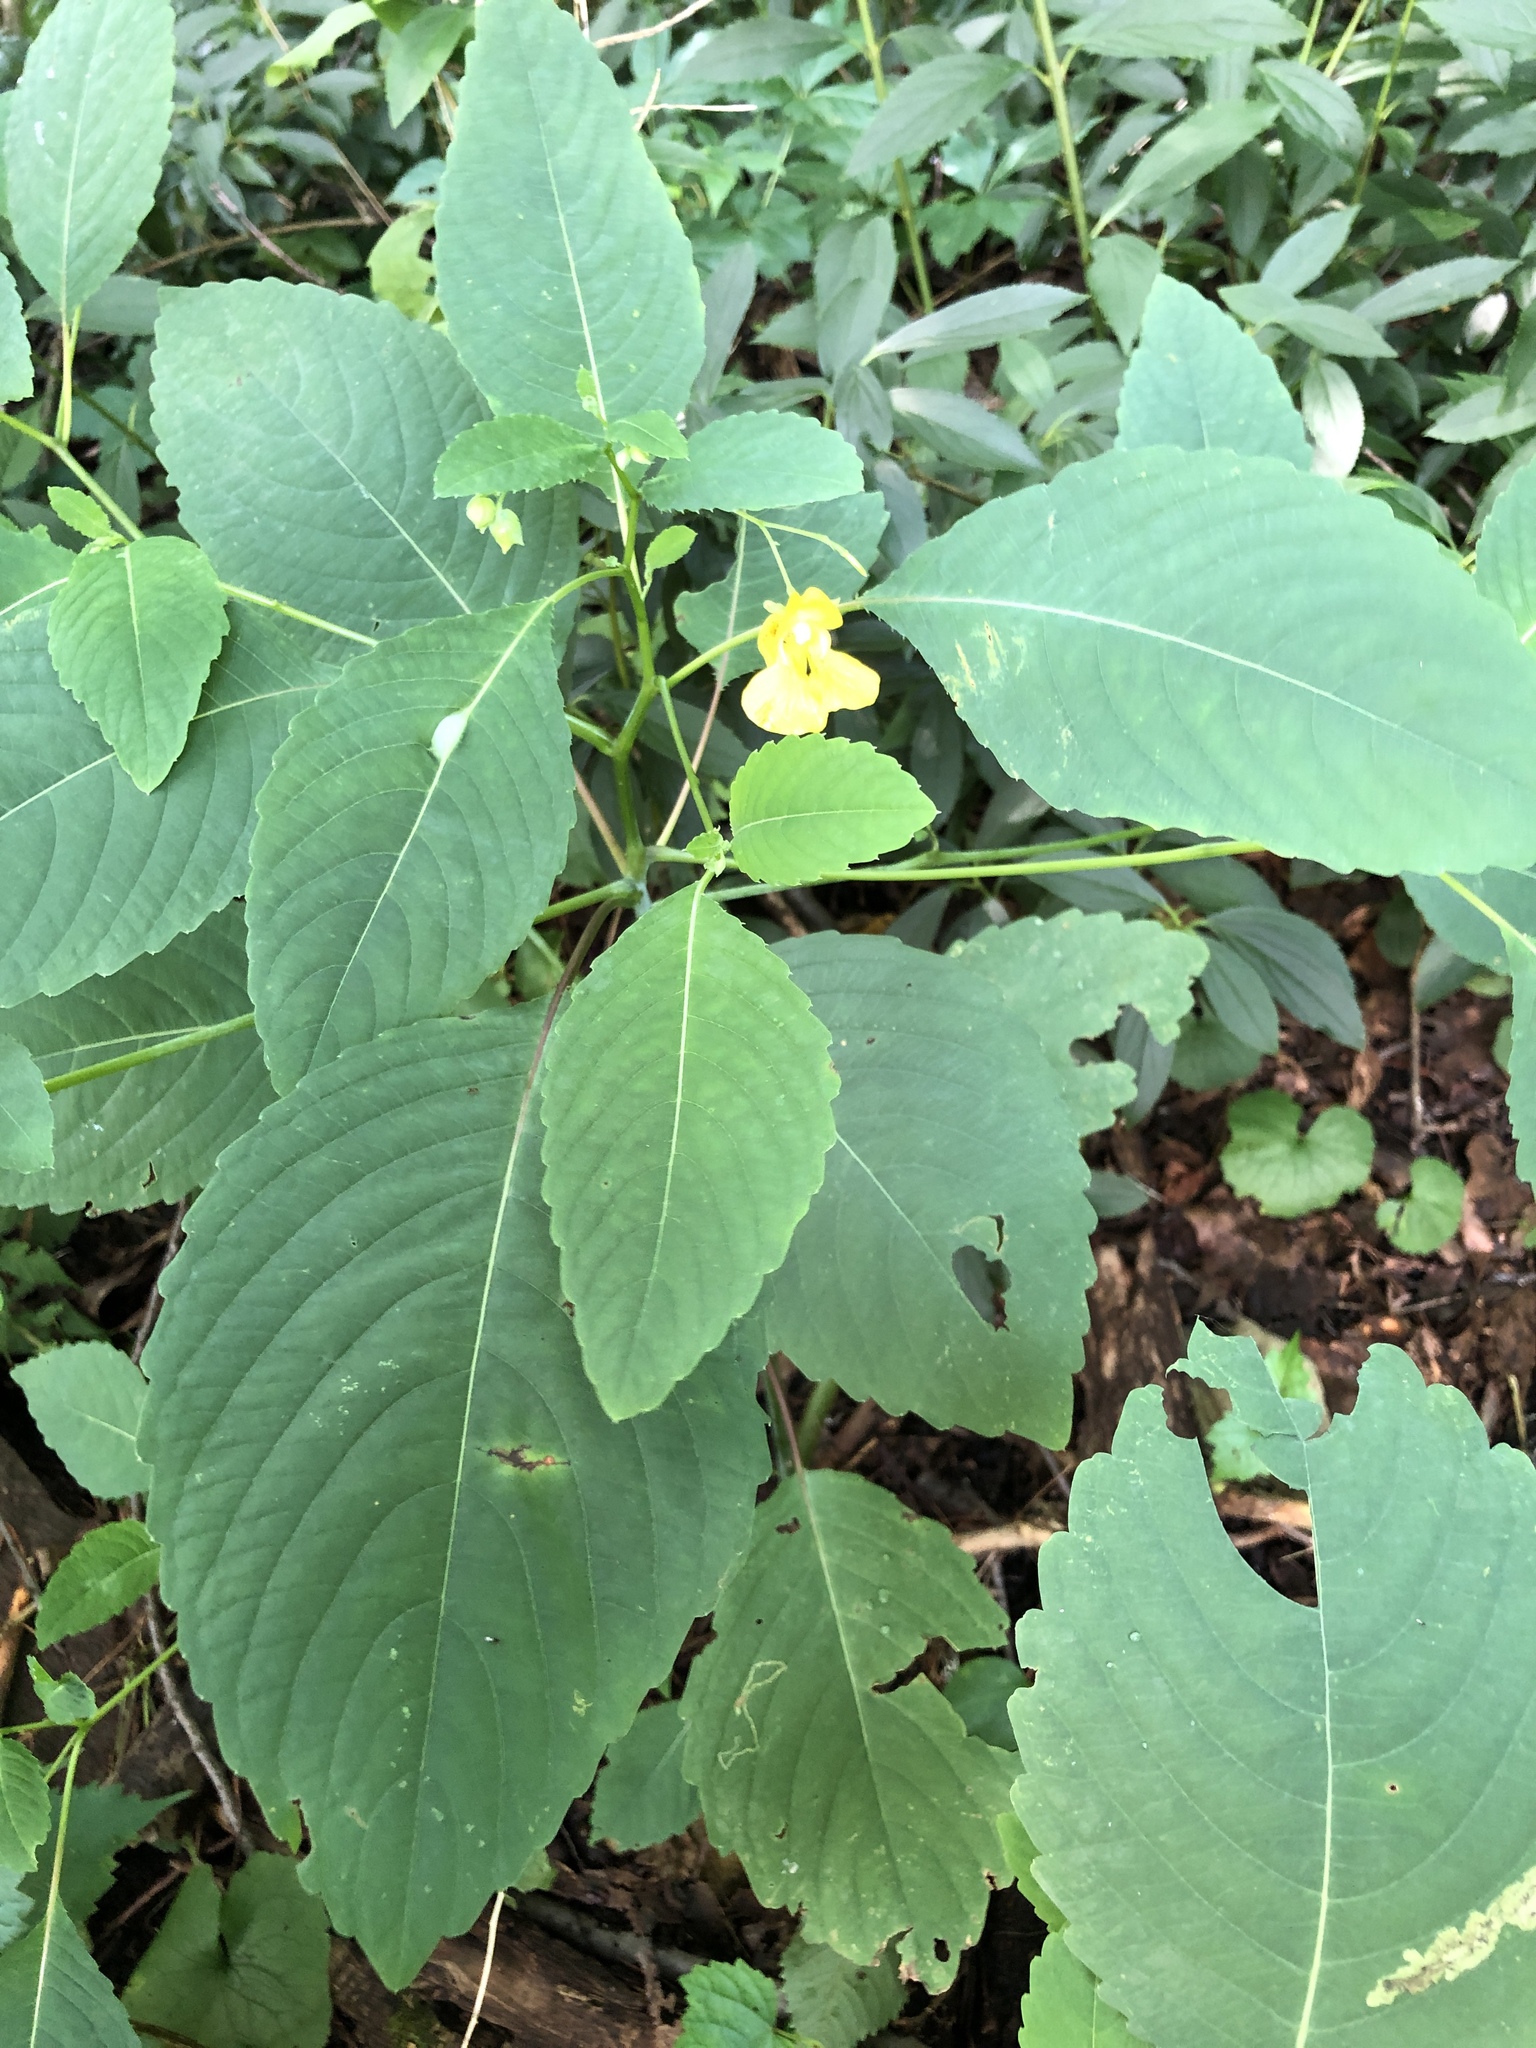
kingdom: Plantae
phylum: Tracheophyta
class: Magnoliopsida
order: Ericales
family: Balsaminaceae
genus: Impatiens
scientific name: Impatiens pallida
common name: Pale snapweed
